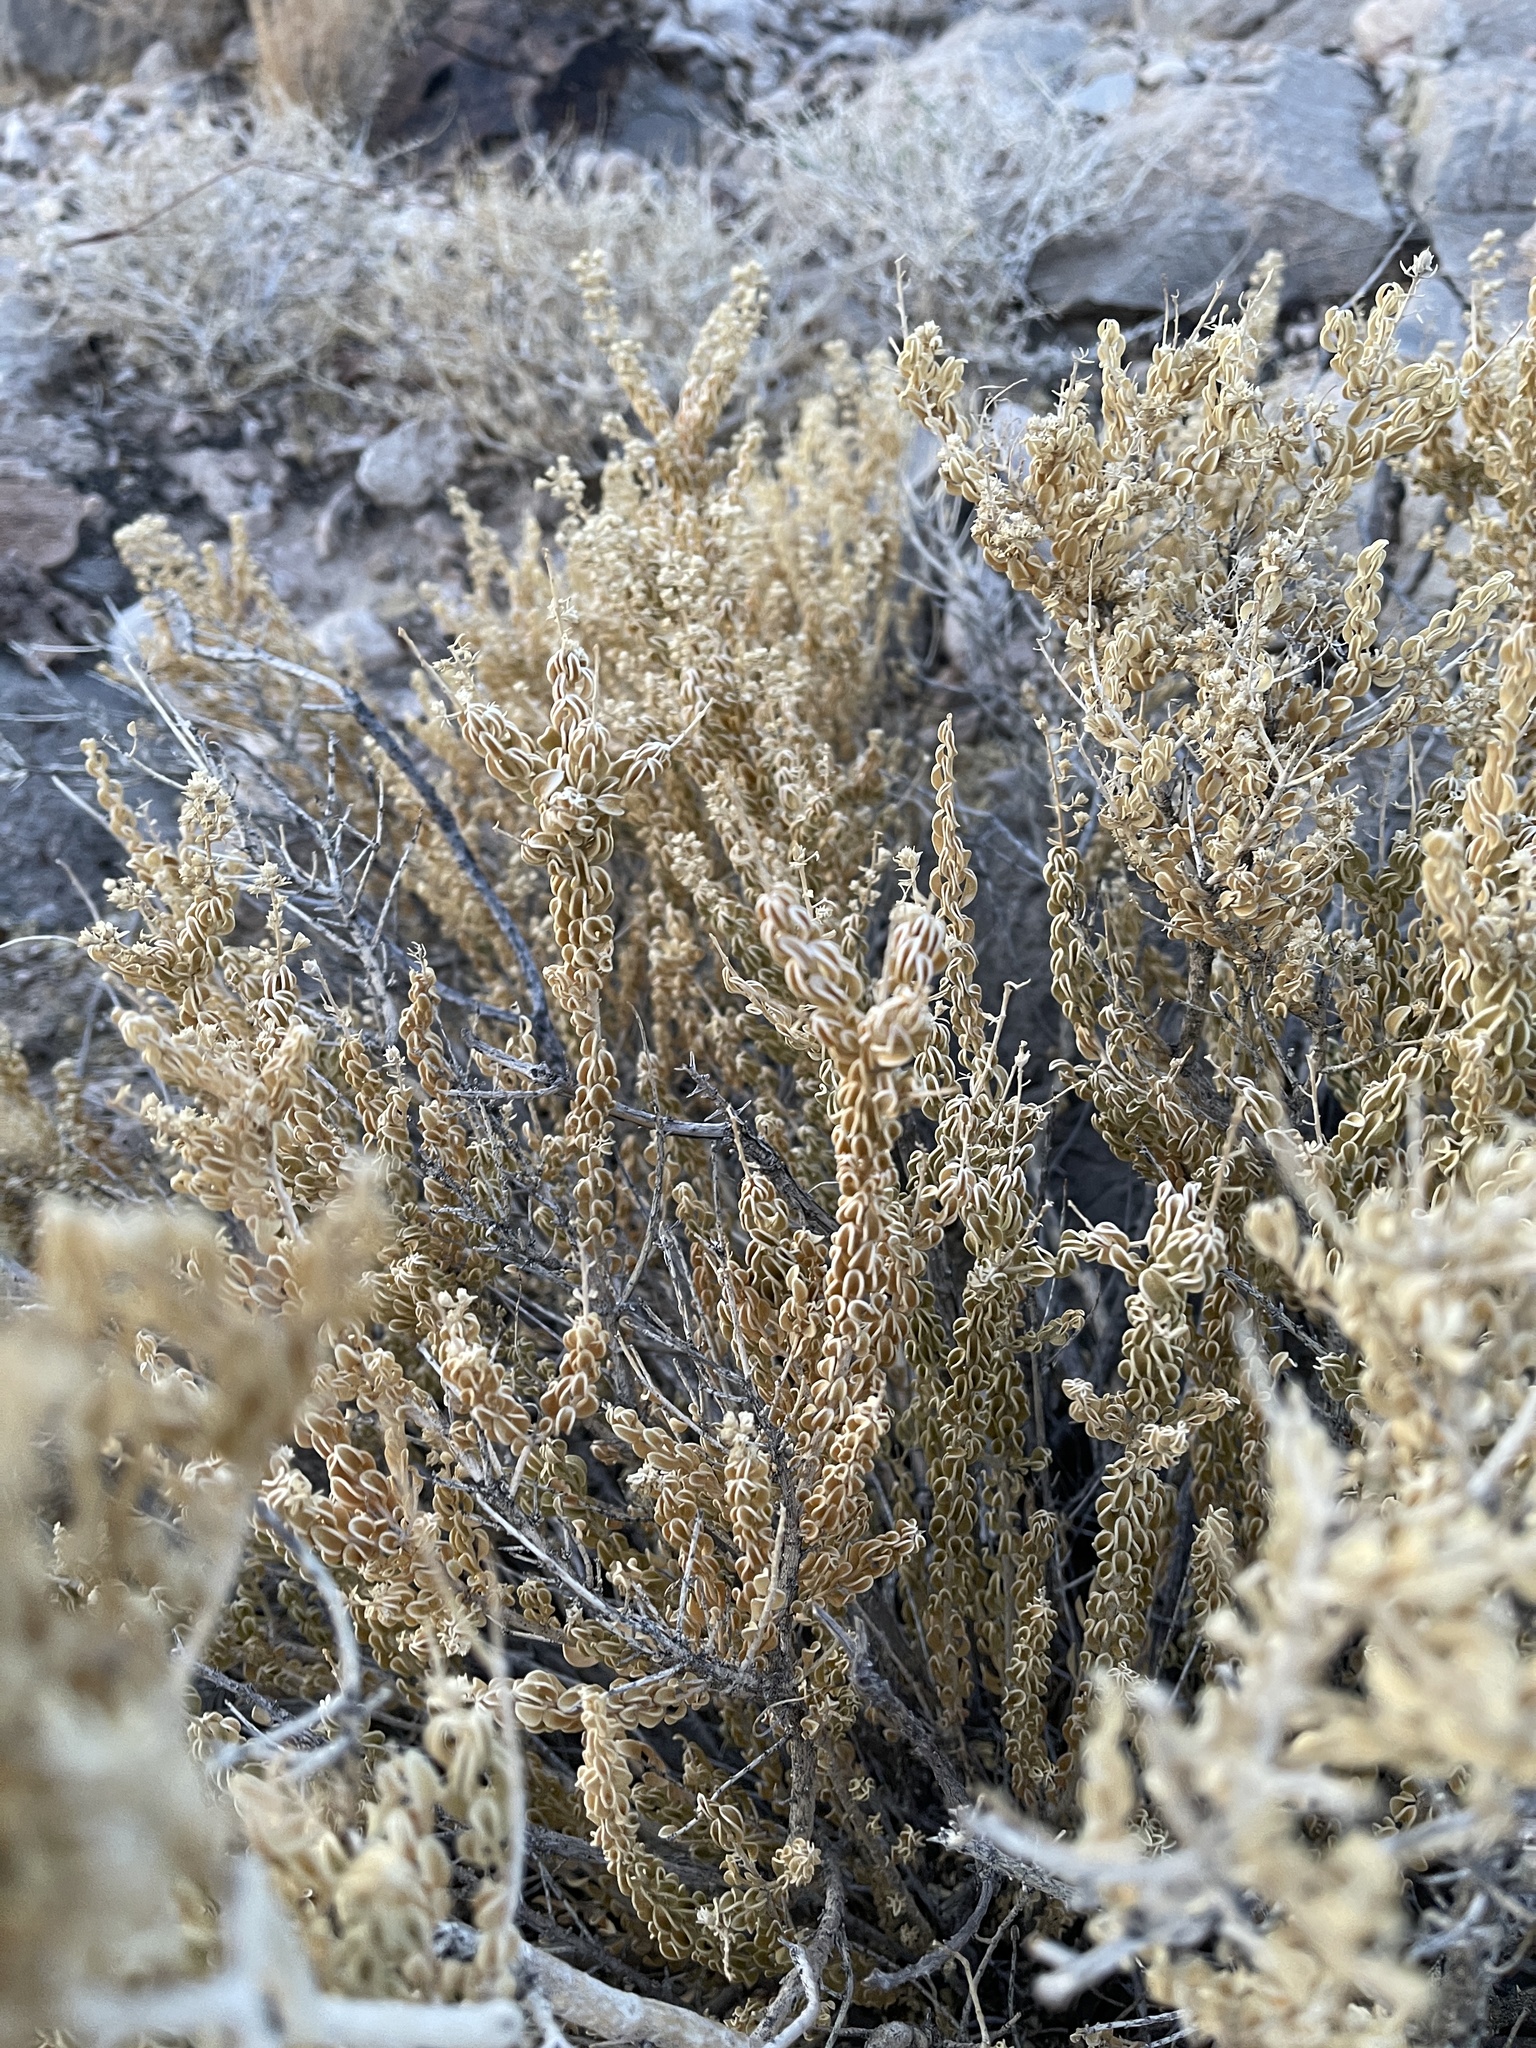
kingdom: Plantae
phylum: Tracheophyta
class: Magnoliopsida
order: Celastrales
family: Celastraceae
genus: Mortonia
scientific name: Mortonia utahensis
